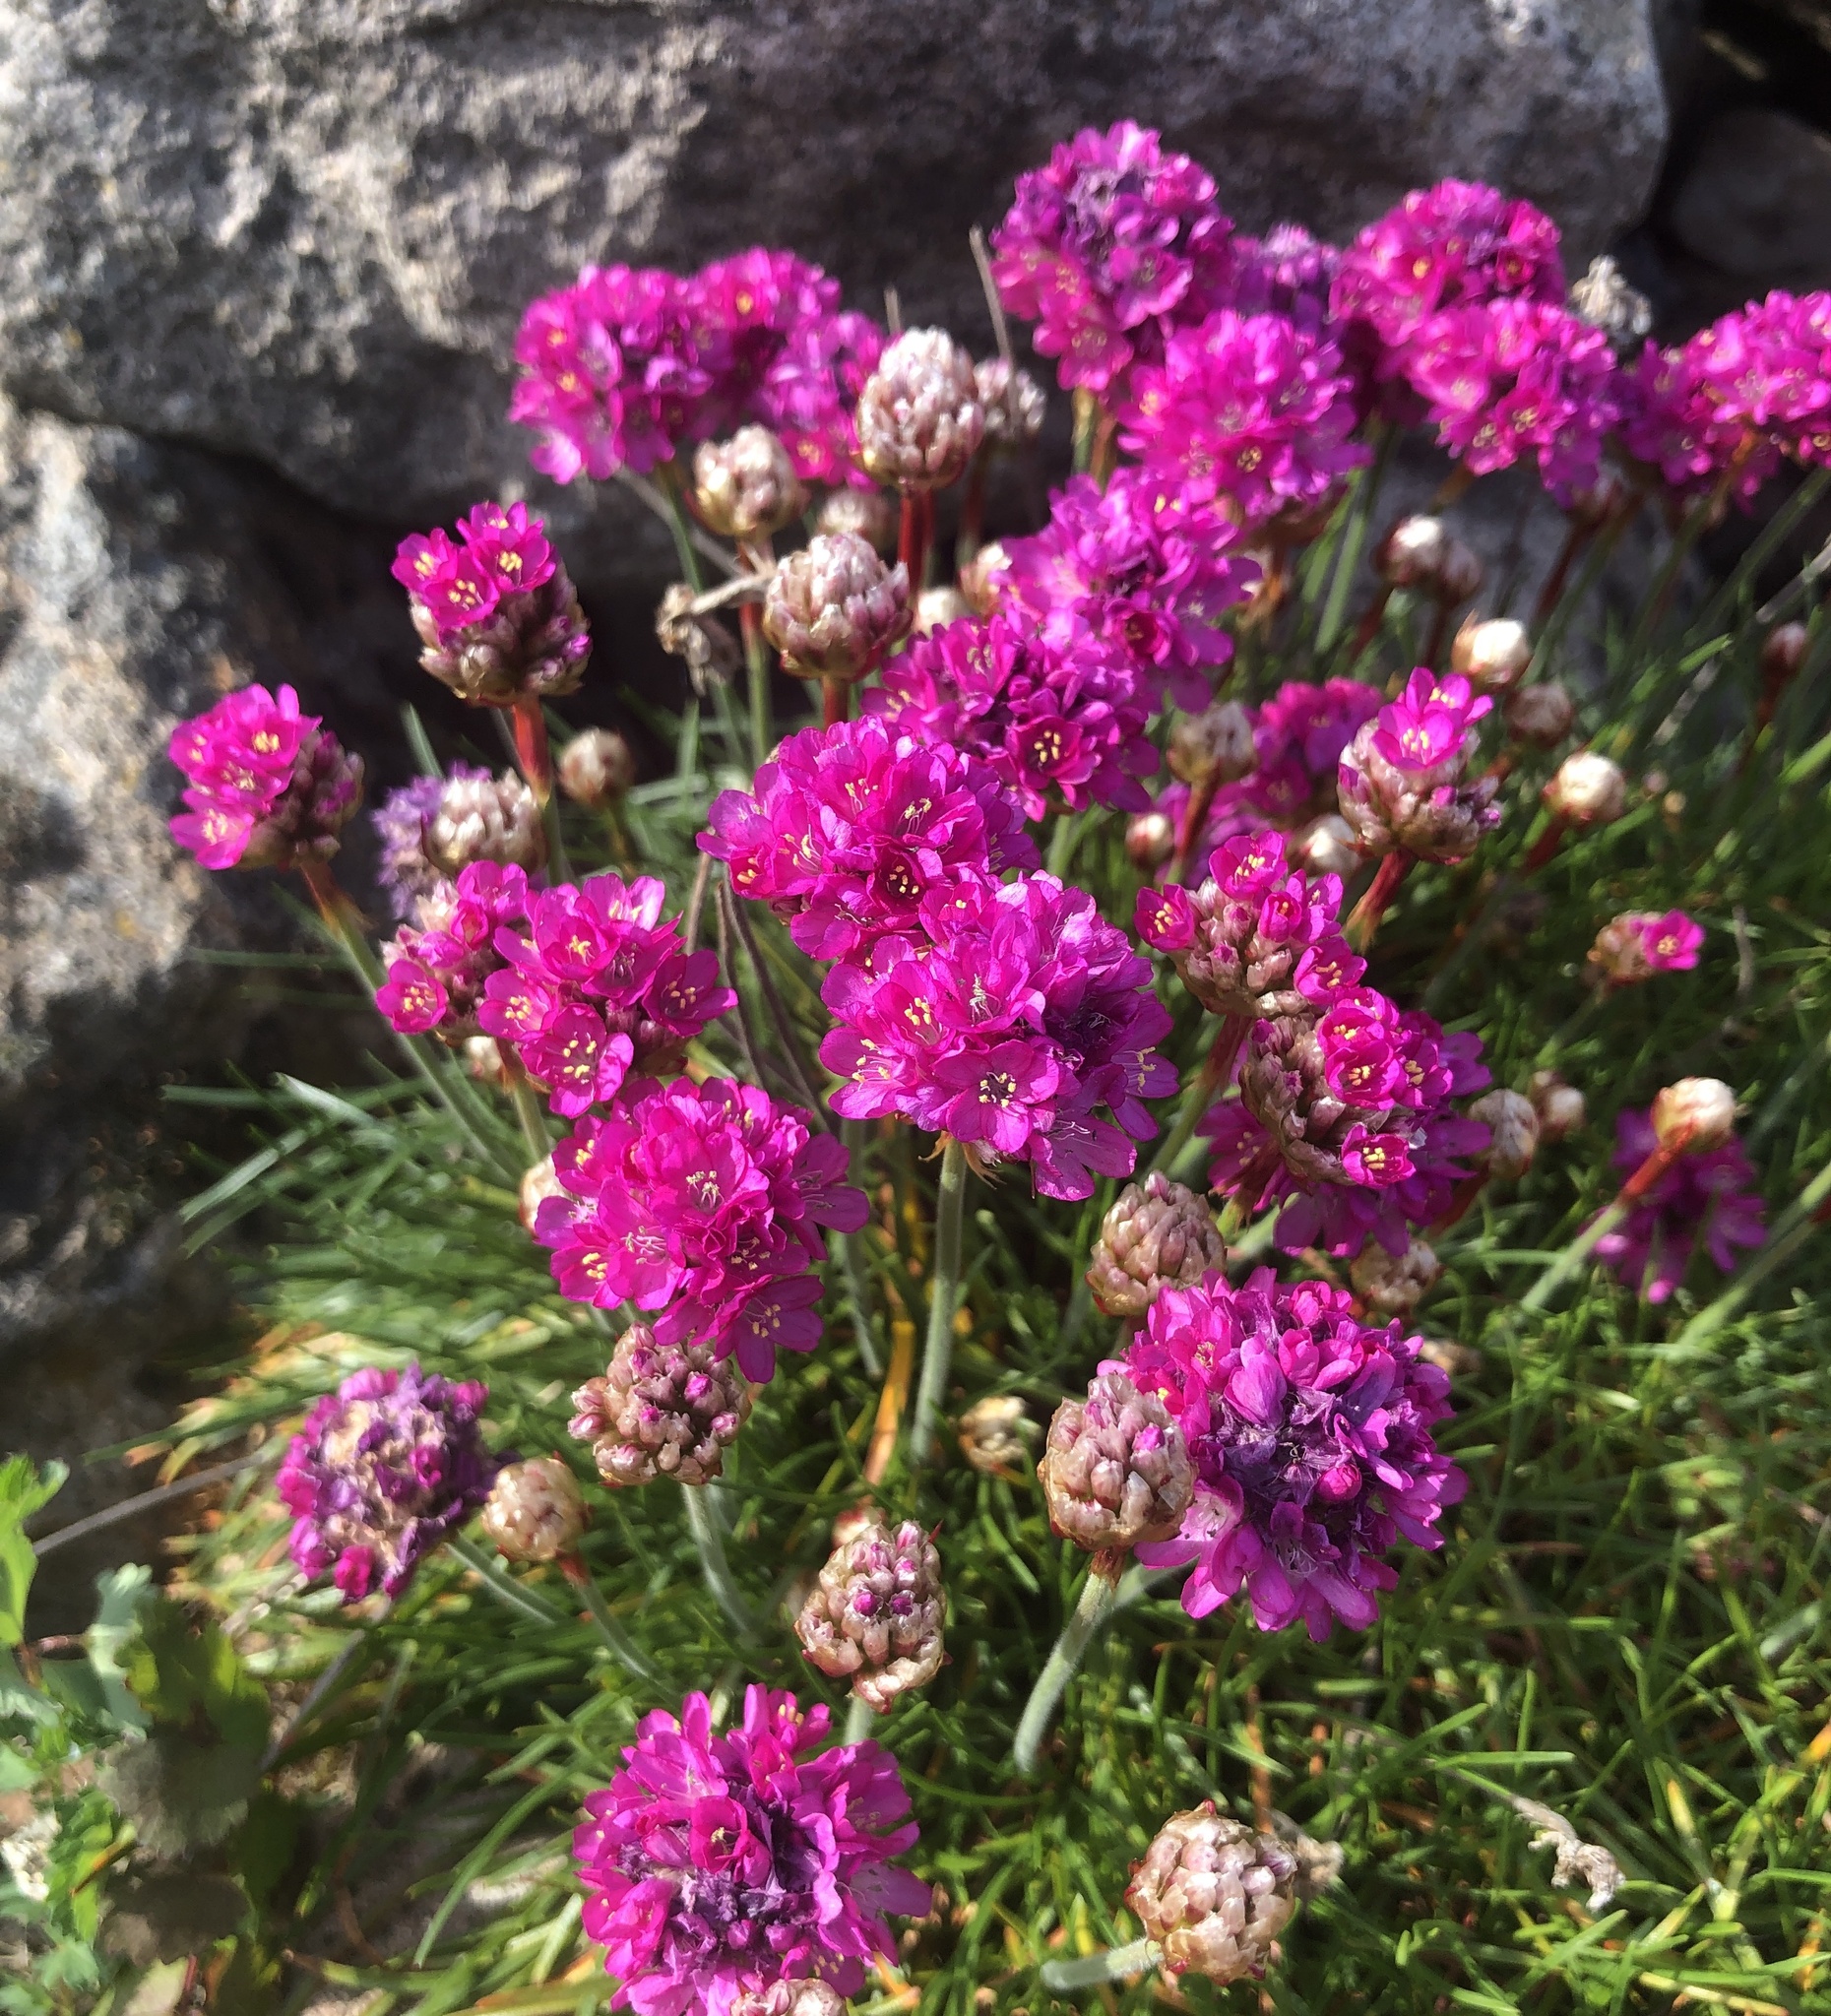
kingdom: Plantae
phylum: Tracheophyta
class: Magnoliopsida
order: Caryophyllales
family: Plumbaginaceae
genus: Armeria
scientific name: Armeria maritima
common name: Thrift
